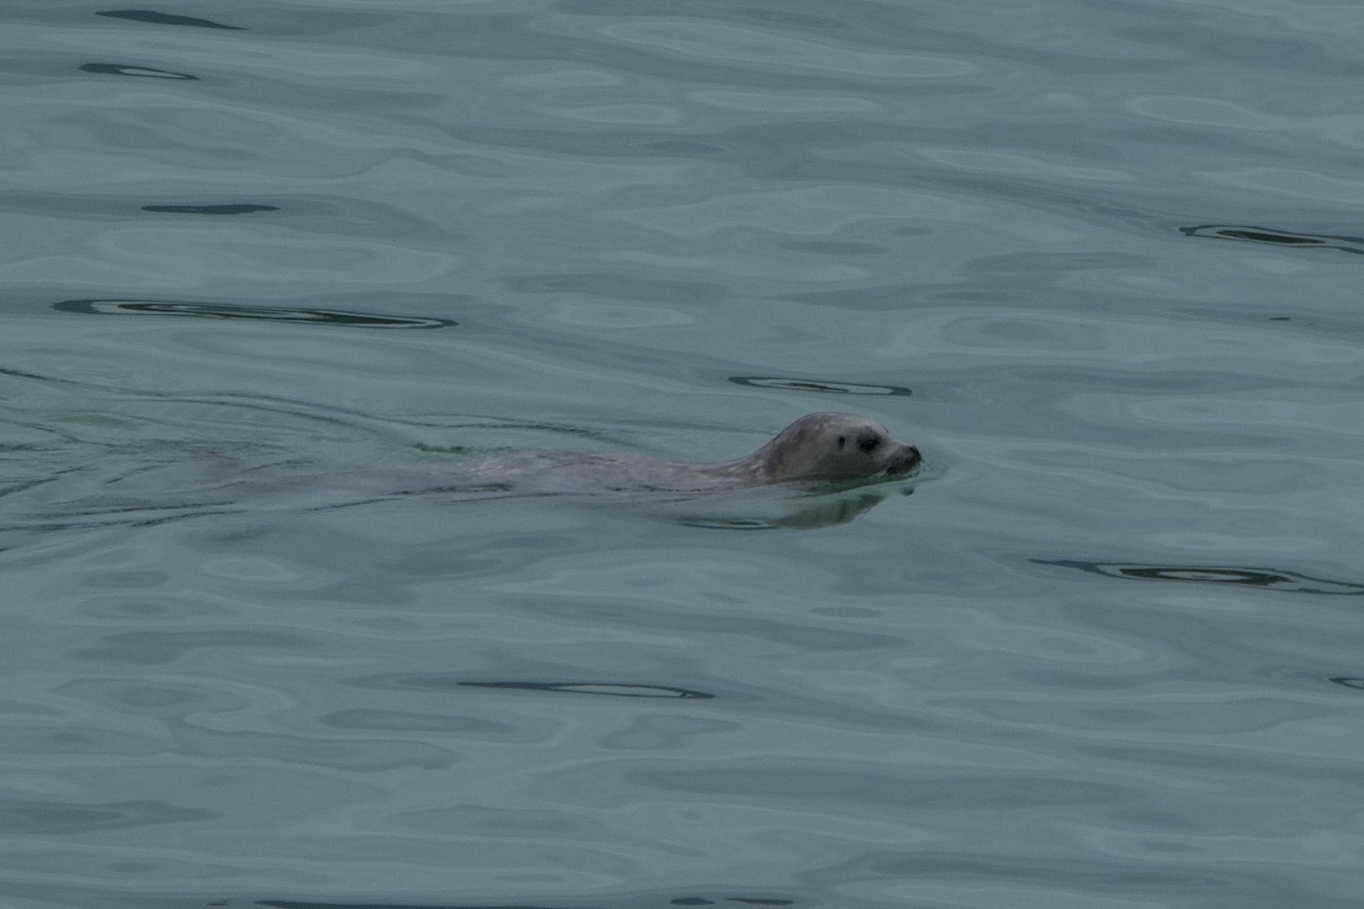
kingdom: Animalia
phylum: Chordata
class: Mammalia
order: Carnivora
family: Phocidae
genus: Phoca
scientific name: Phoca vitulina
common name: Harbor seal
